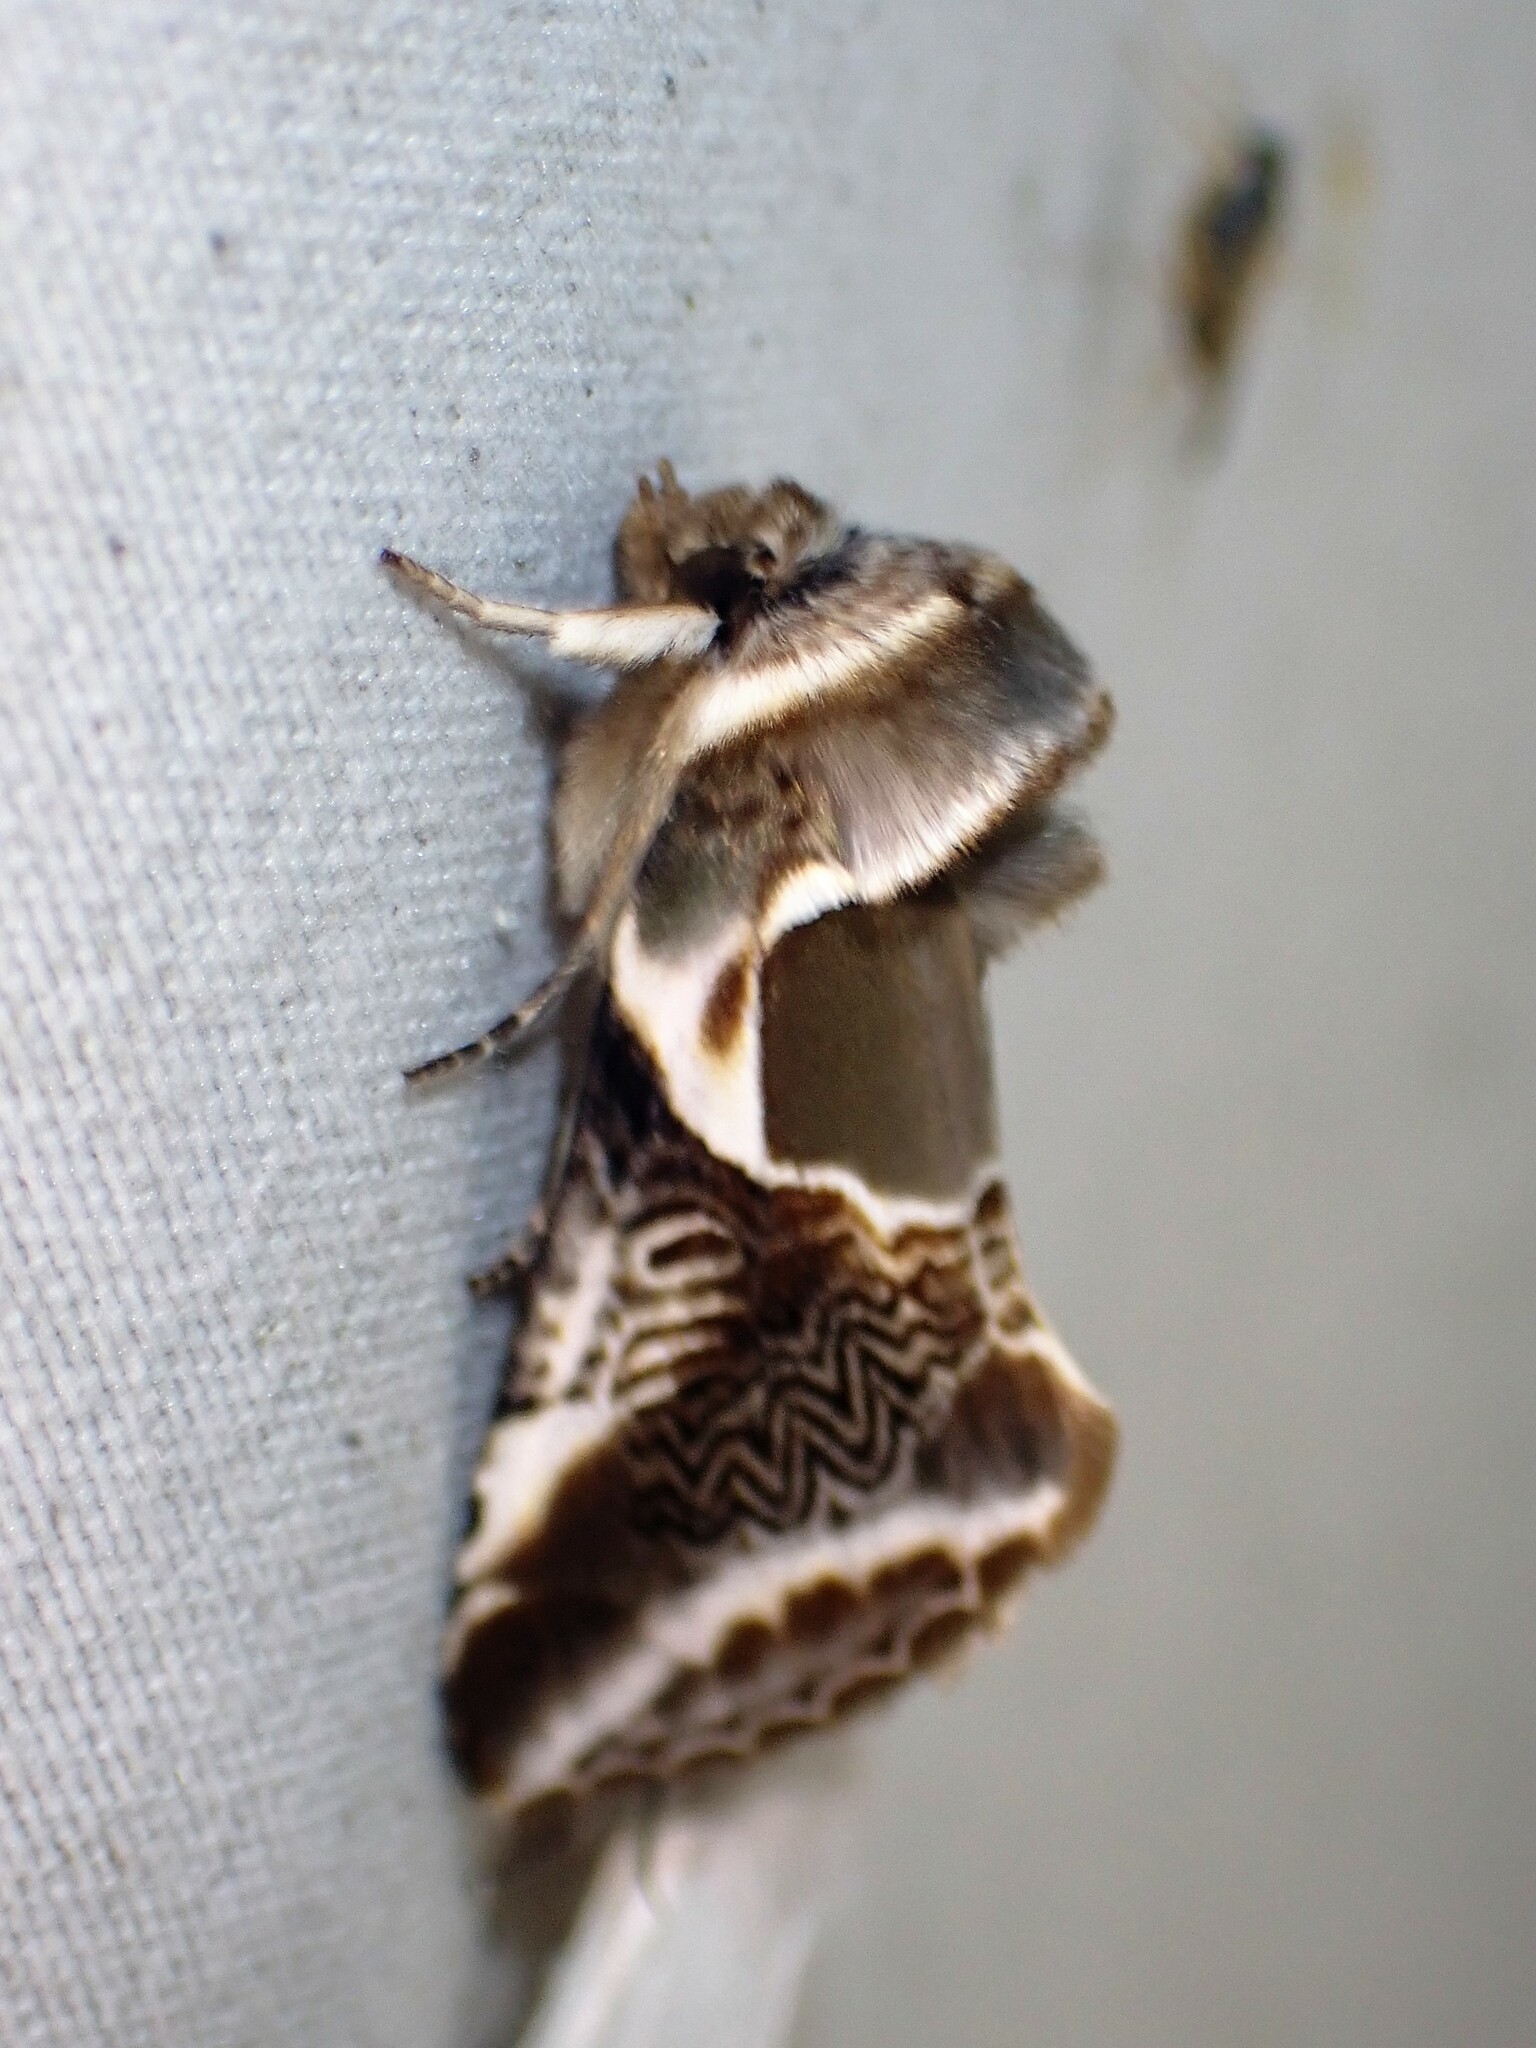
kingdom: Animalia
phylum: Arthropoda
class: Insecta
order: Lepidoptera
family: Drepanidae
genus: Habrosyne
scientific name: Habrosyne scripta
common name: Lettered habrosyne moth
